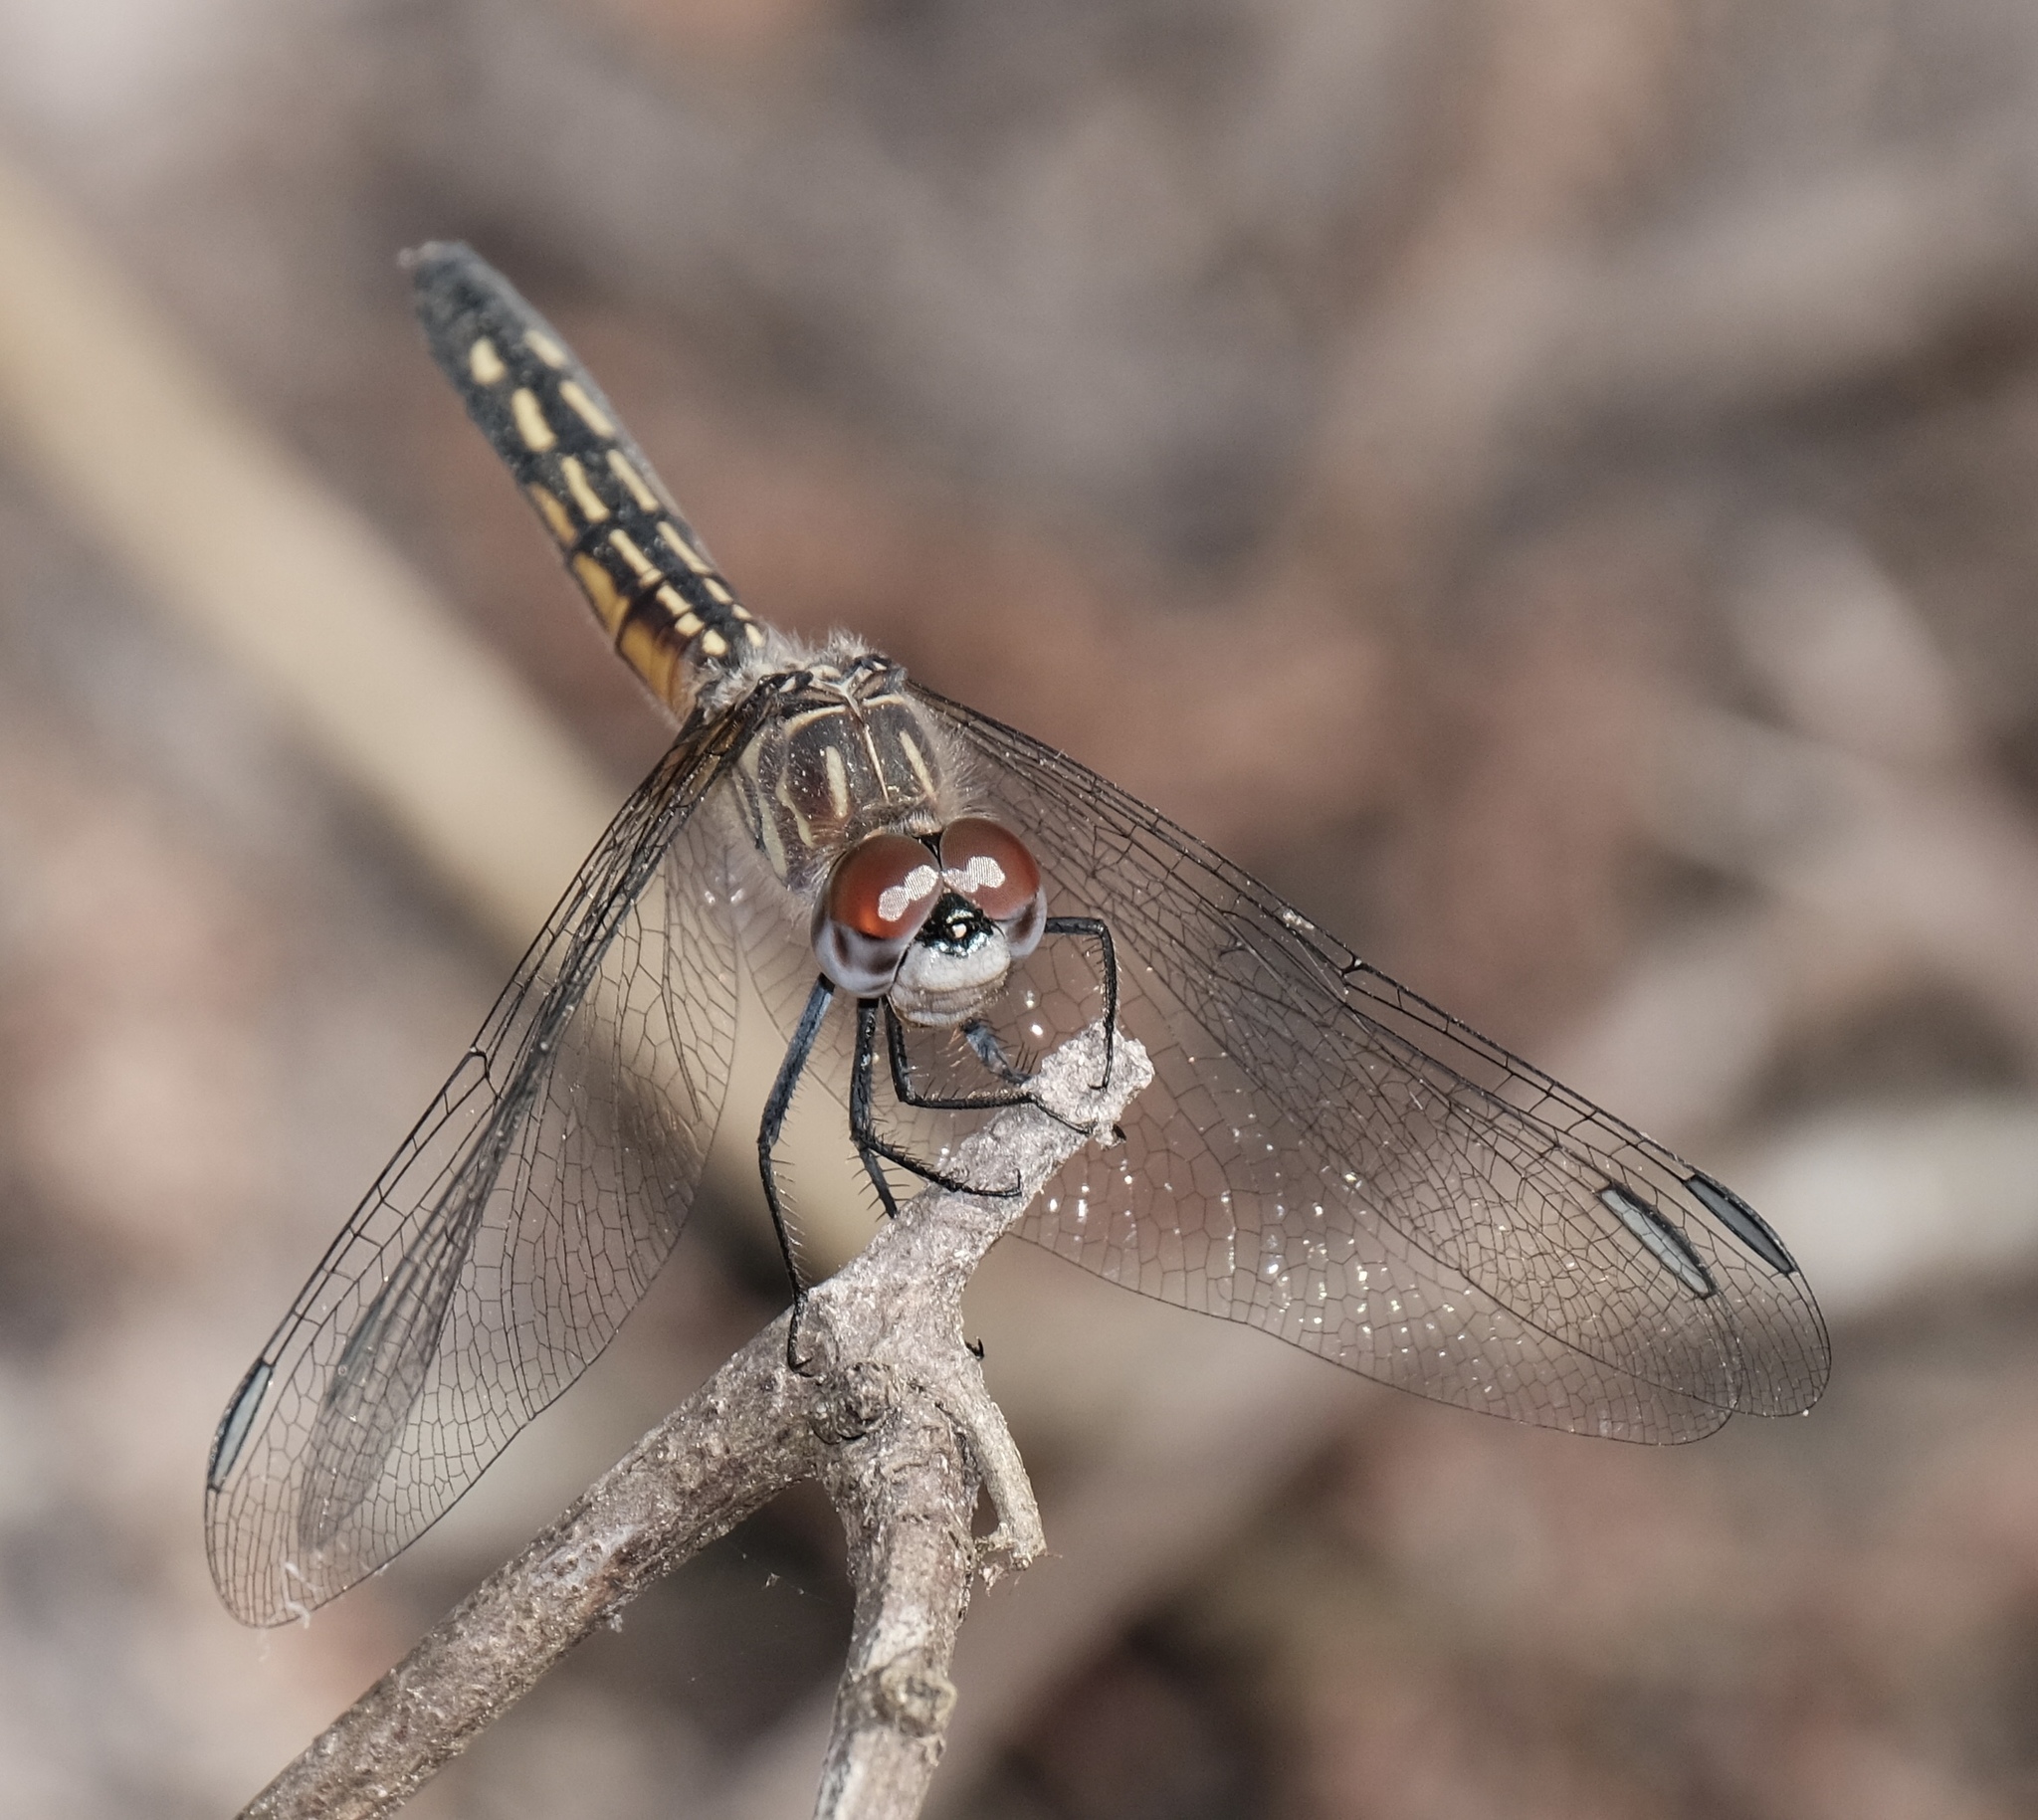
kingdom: Animalia
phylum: Arthropoda
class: Insecta
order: Odonata
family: Libellulidae
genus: Pachydiplax
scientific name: Pachydiplax longipennis
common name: Blue dasher
